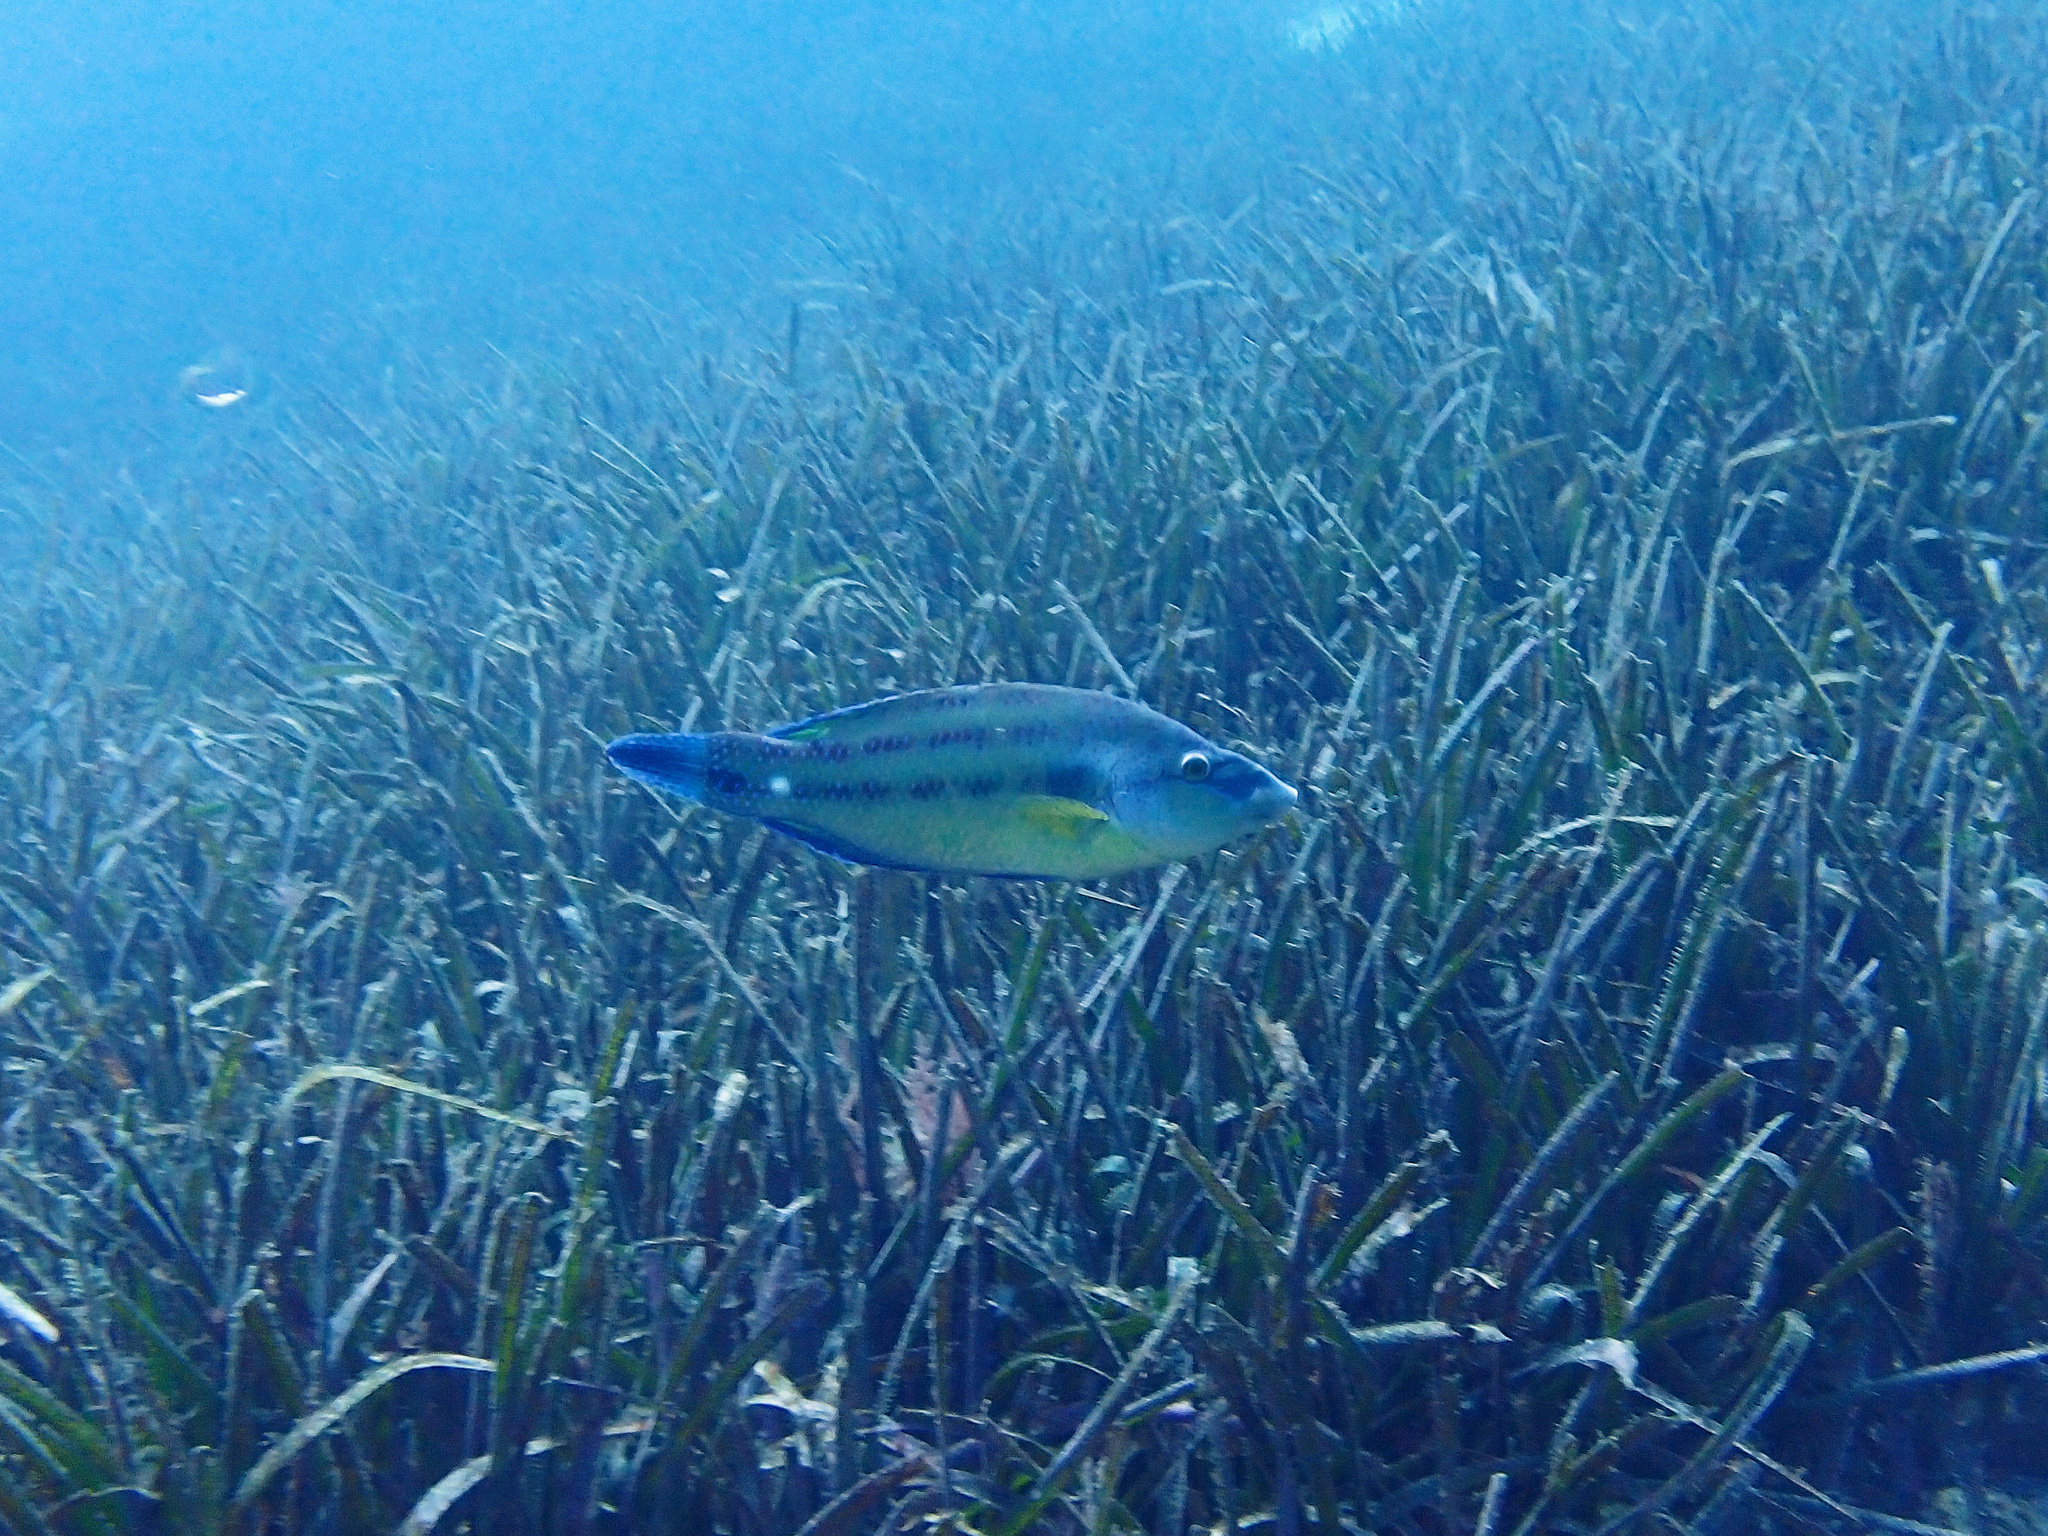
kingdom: Animalia
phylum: Chordata
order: Perciformes
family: Labridae
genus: Symphodus
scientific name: Symphodus tinca
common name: Peacock wrasse
